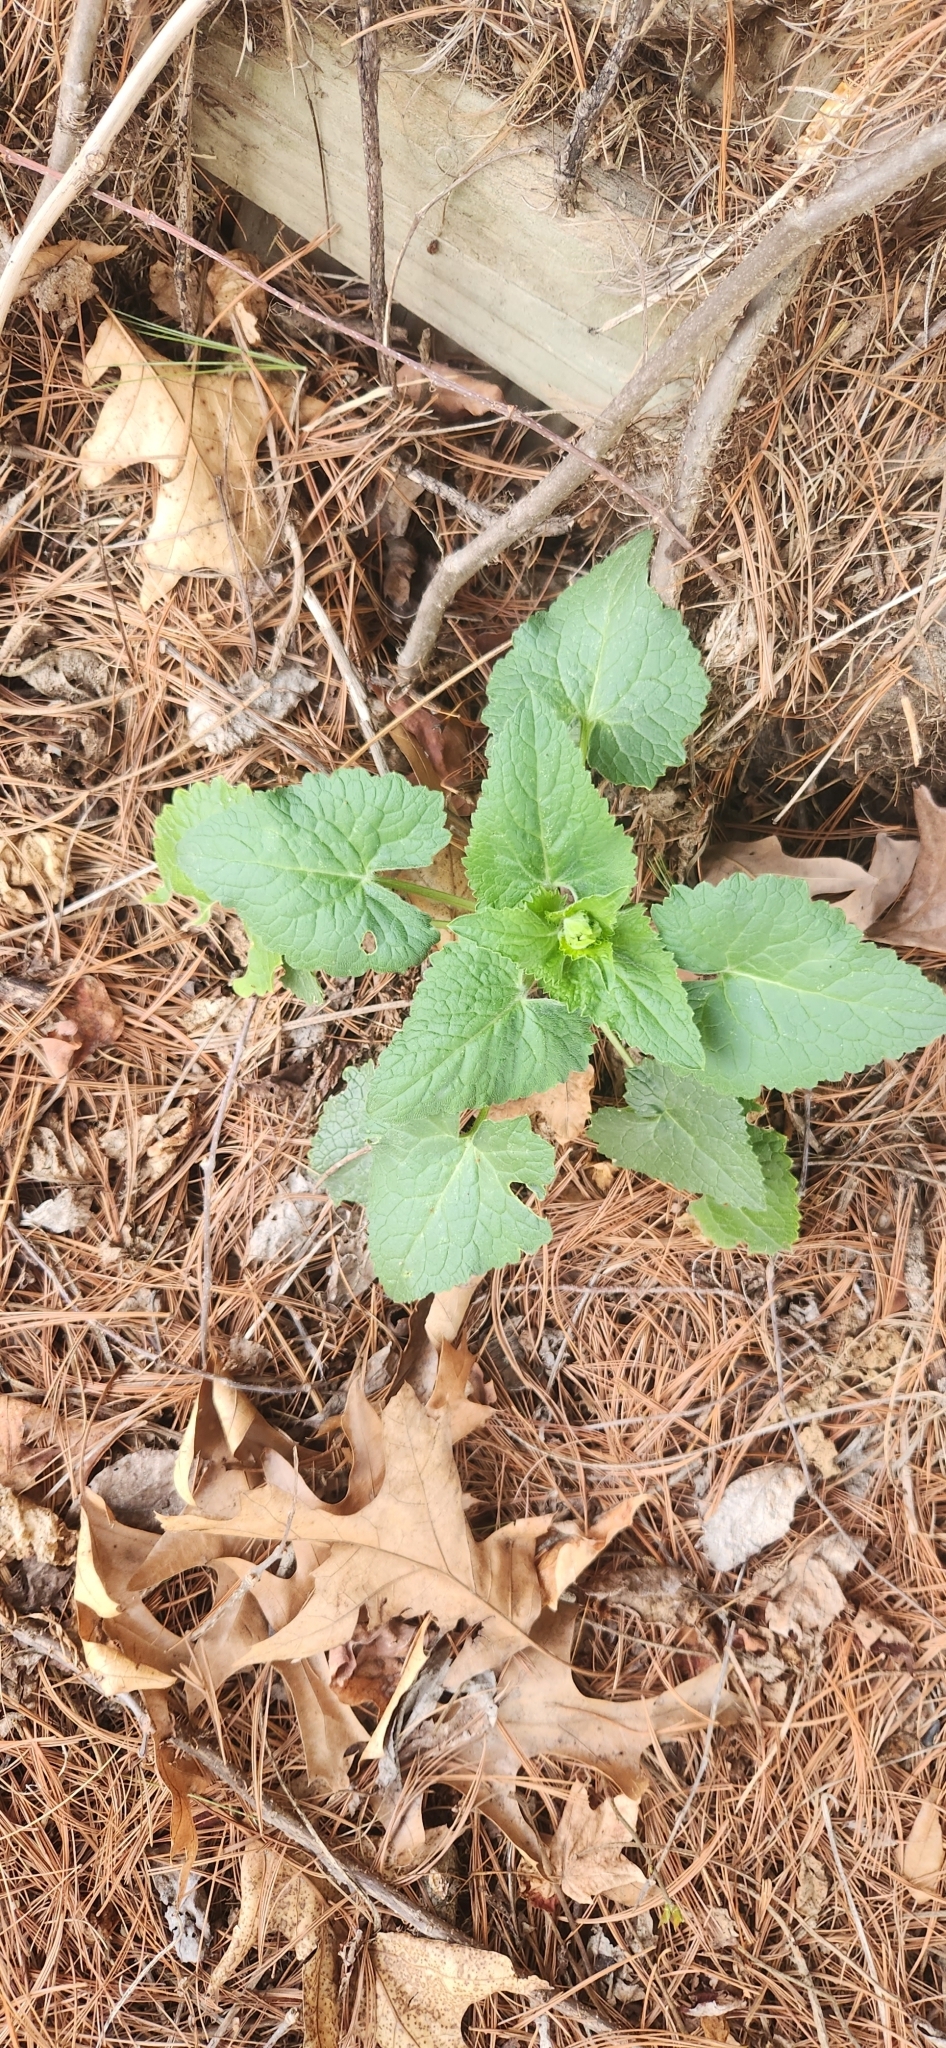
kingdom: Plantae
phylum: Tracheophyta
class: Magnoliopsida
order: Brassicales
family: Brassicaceae
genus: Lunaria
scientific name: Lunaria annua
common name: Honesty
